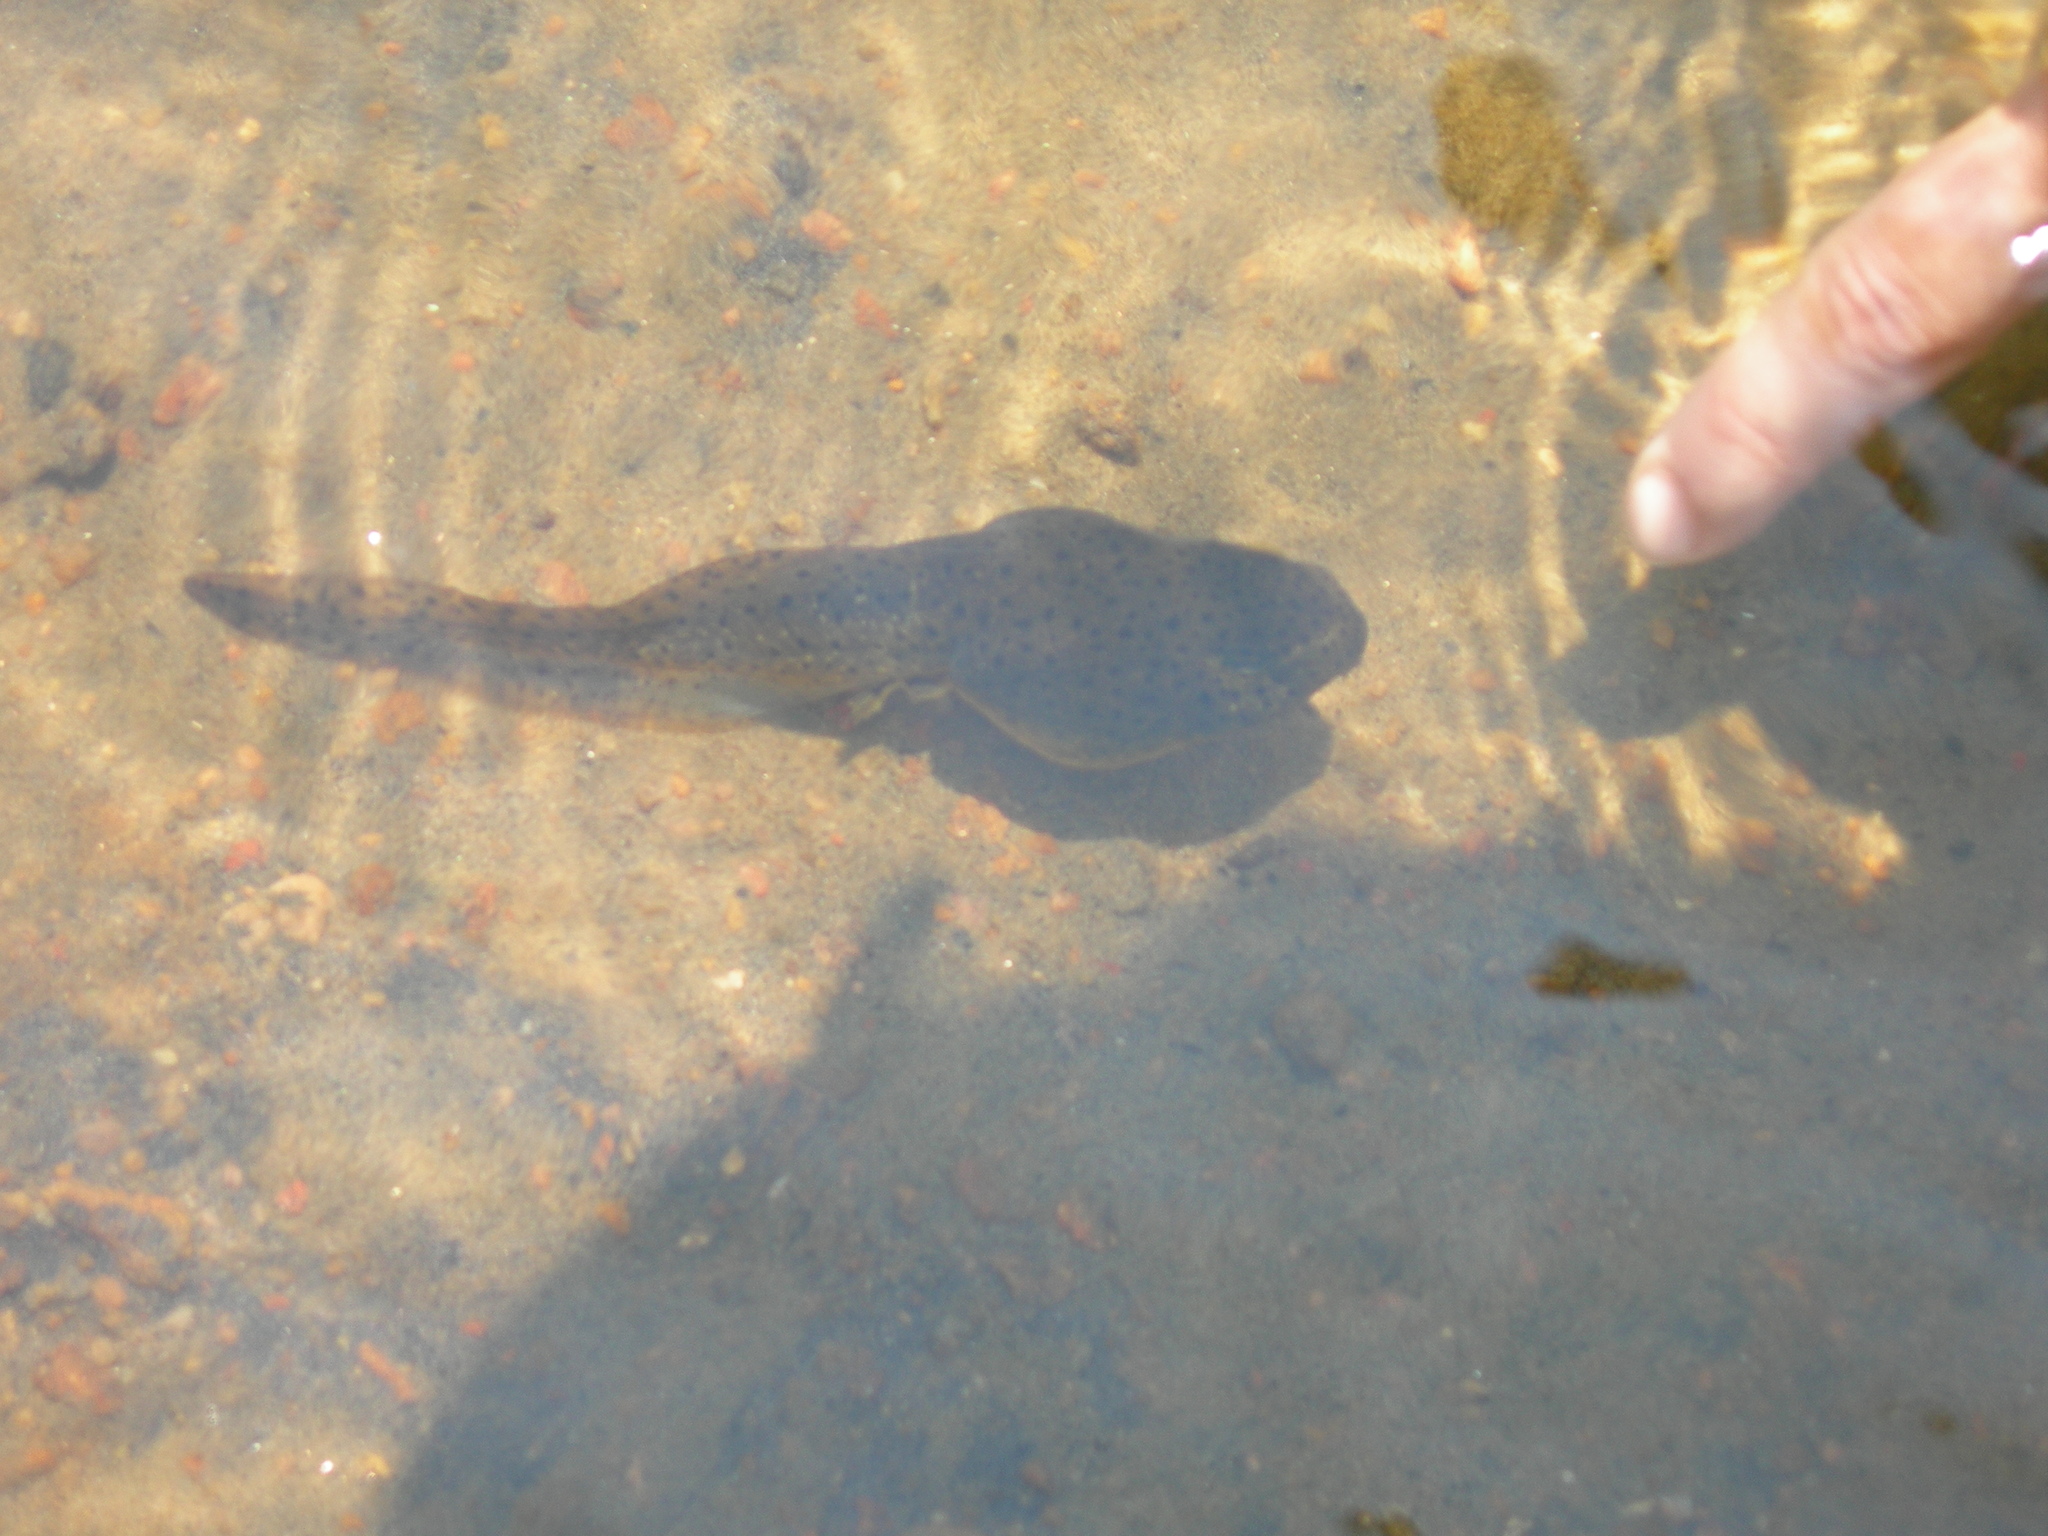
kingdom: Animalia
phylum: Chordata
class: Amphibia
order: Anura
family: Ranidae
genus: Lithobates
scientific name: Lithobates catesbeianus
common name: American bullfrog
